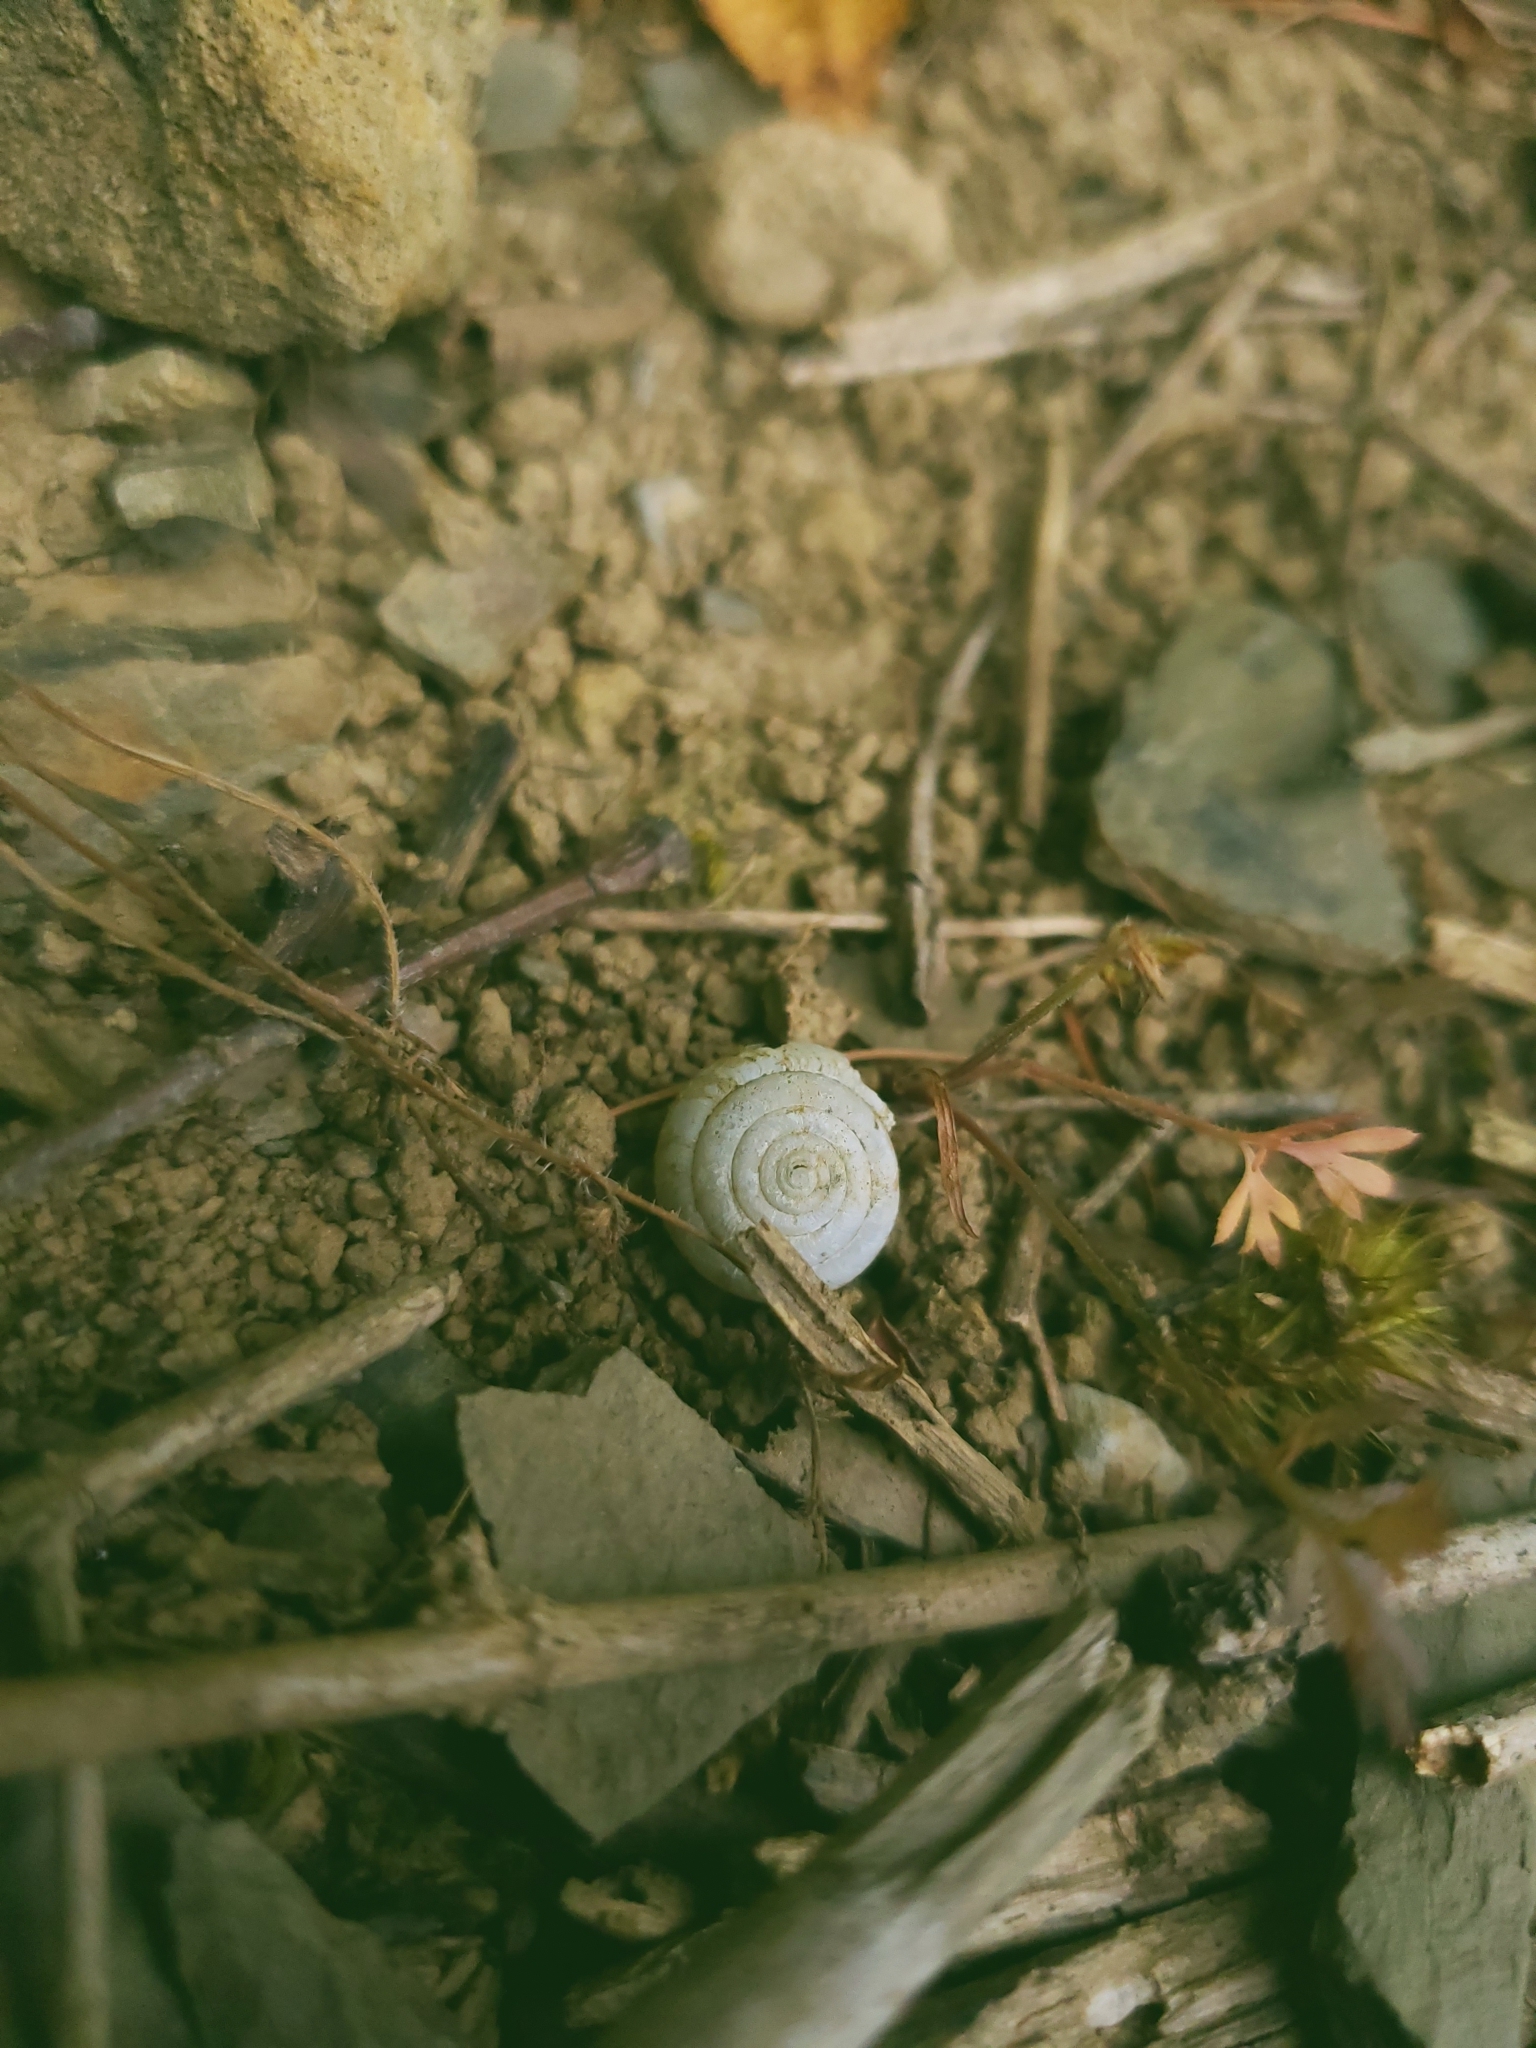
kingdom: Animalia
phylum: Mollusca
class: Gastropoda
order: Stylommatophora
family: Gastrodontidae
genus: Ventridens
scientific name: Ventridens ligera
